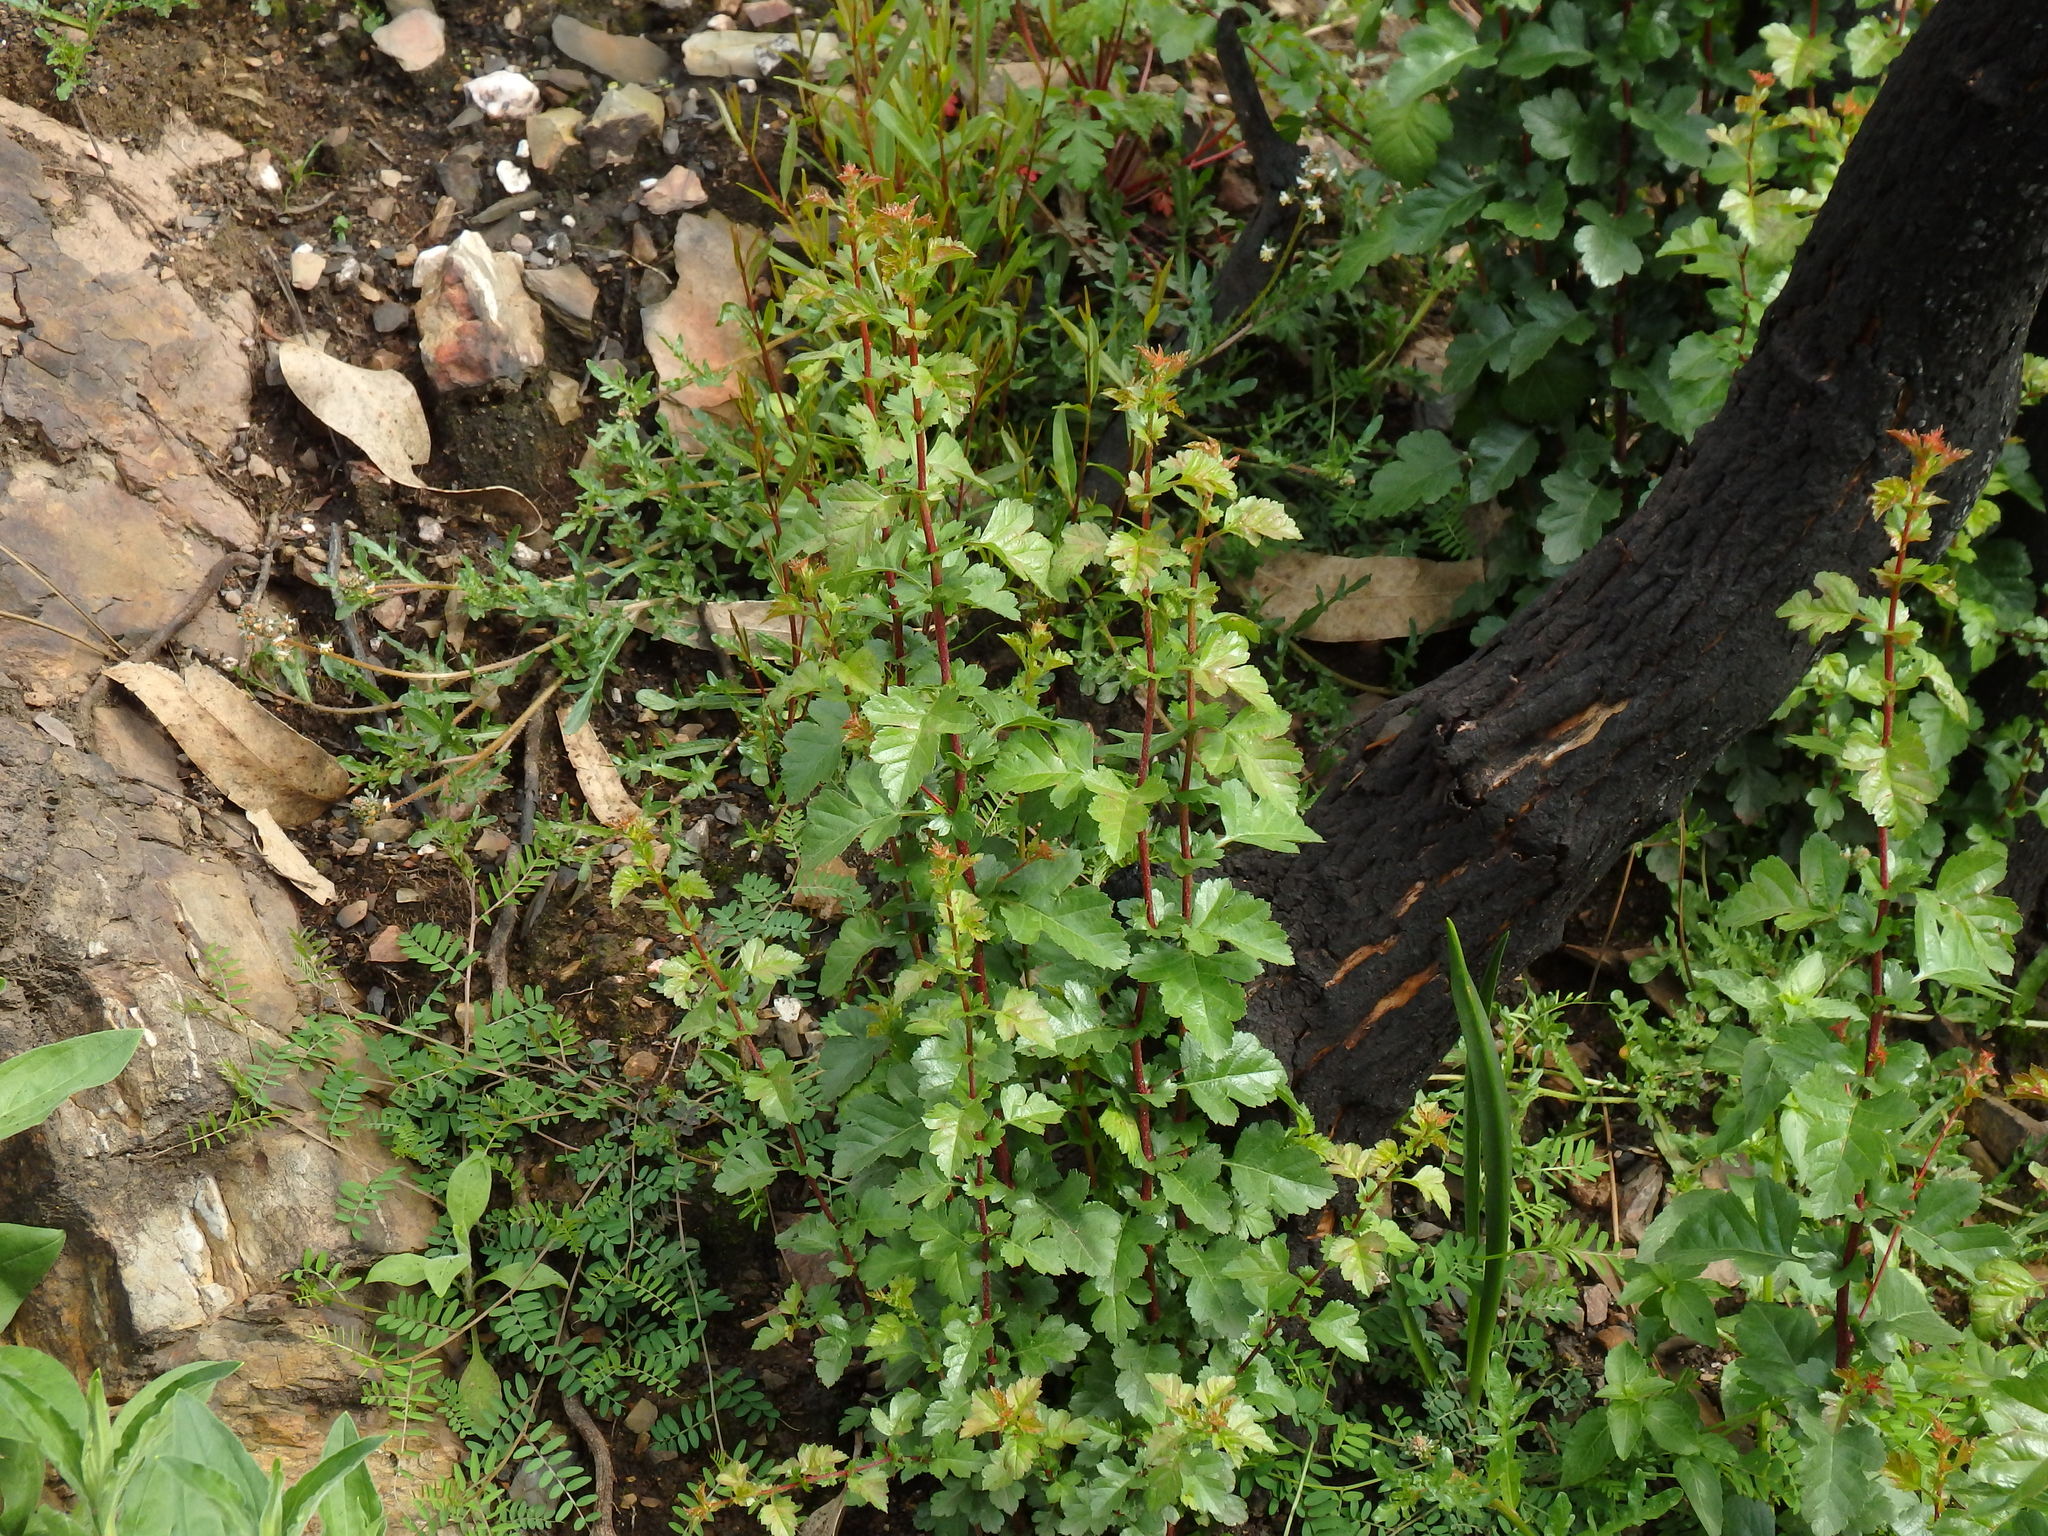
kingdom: Plantae
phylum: Tracheophyta
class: Magnoliopsida
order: Rosales
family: Rosaceae
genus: Crataegus
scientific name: Crataegus monogyna
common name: Hawthorn
